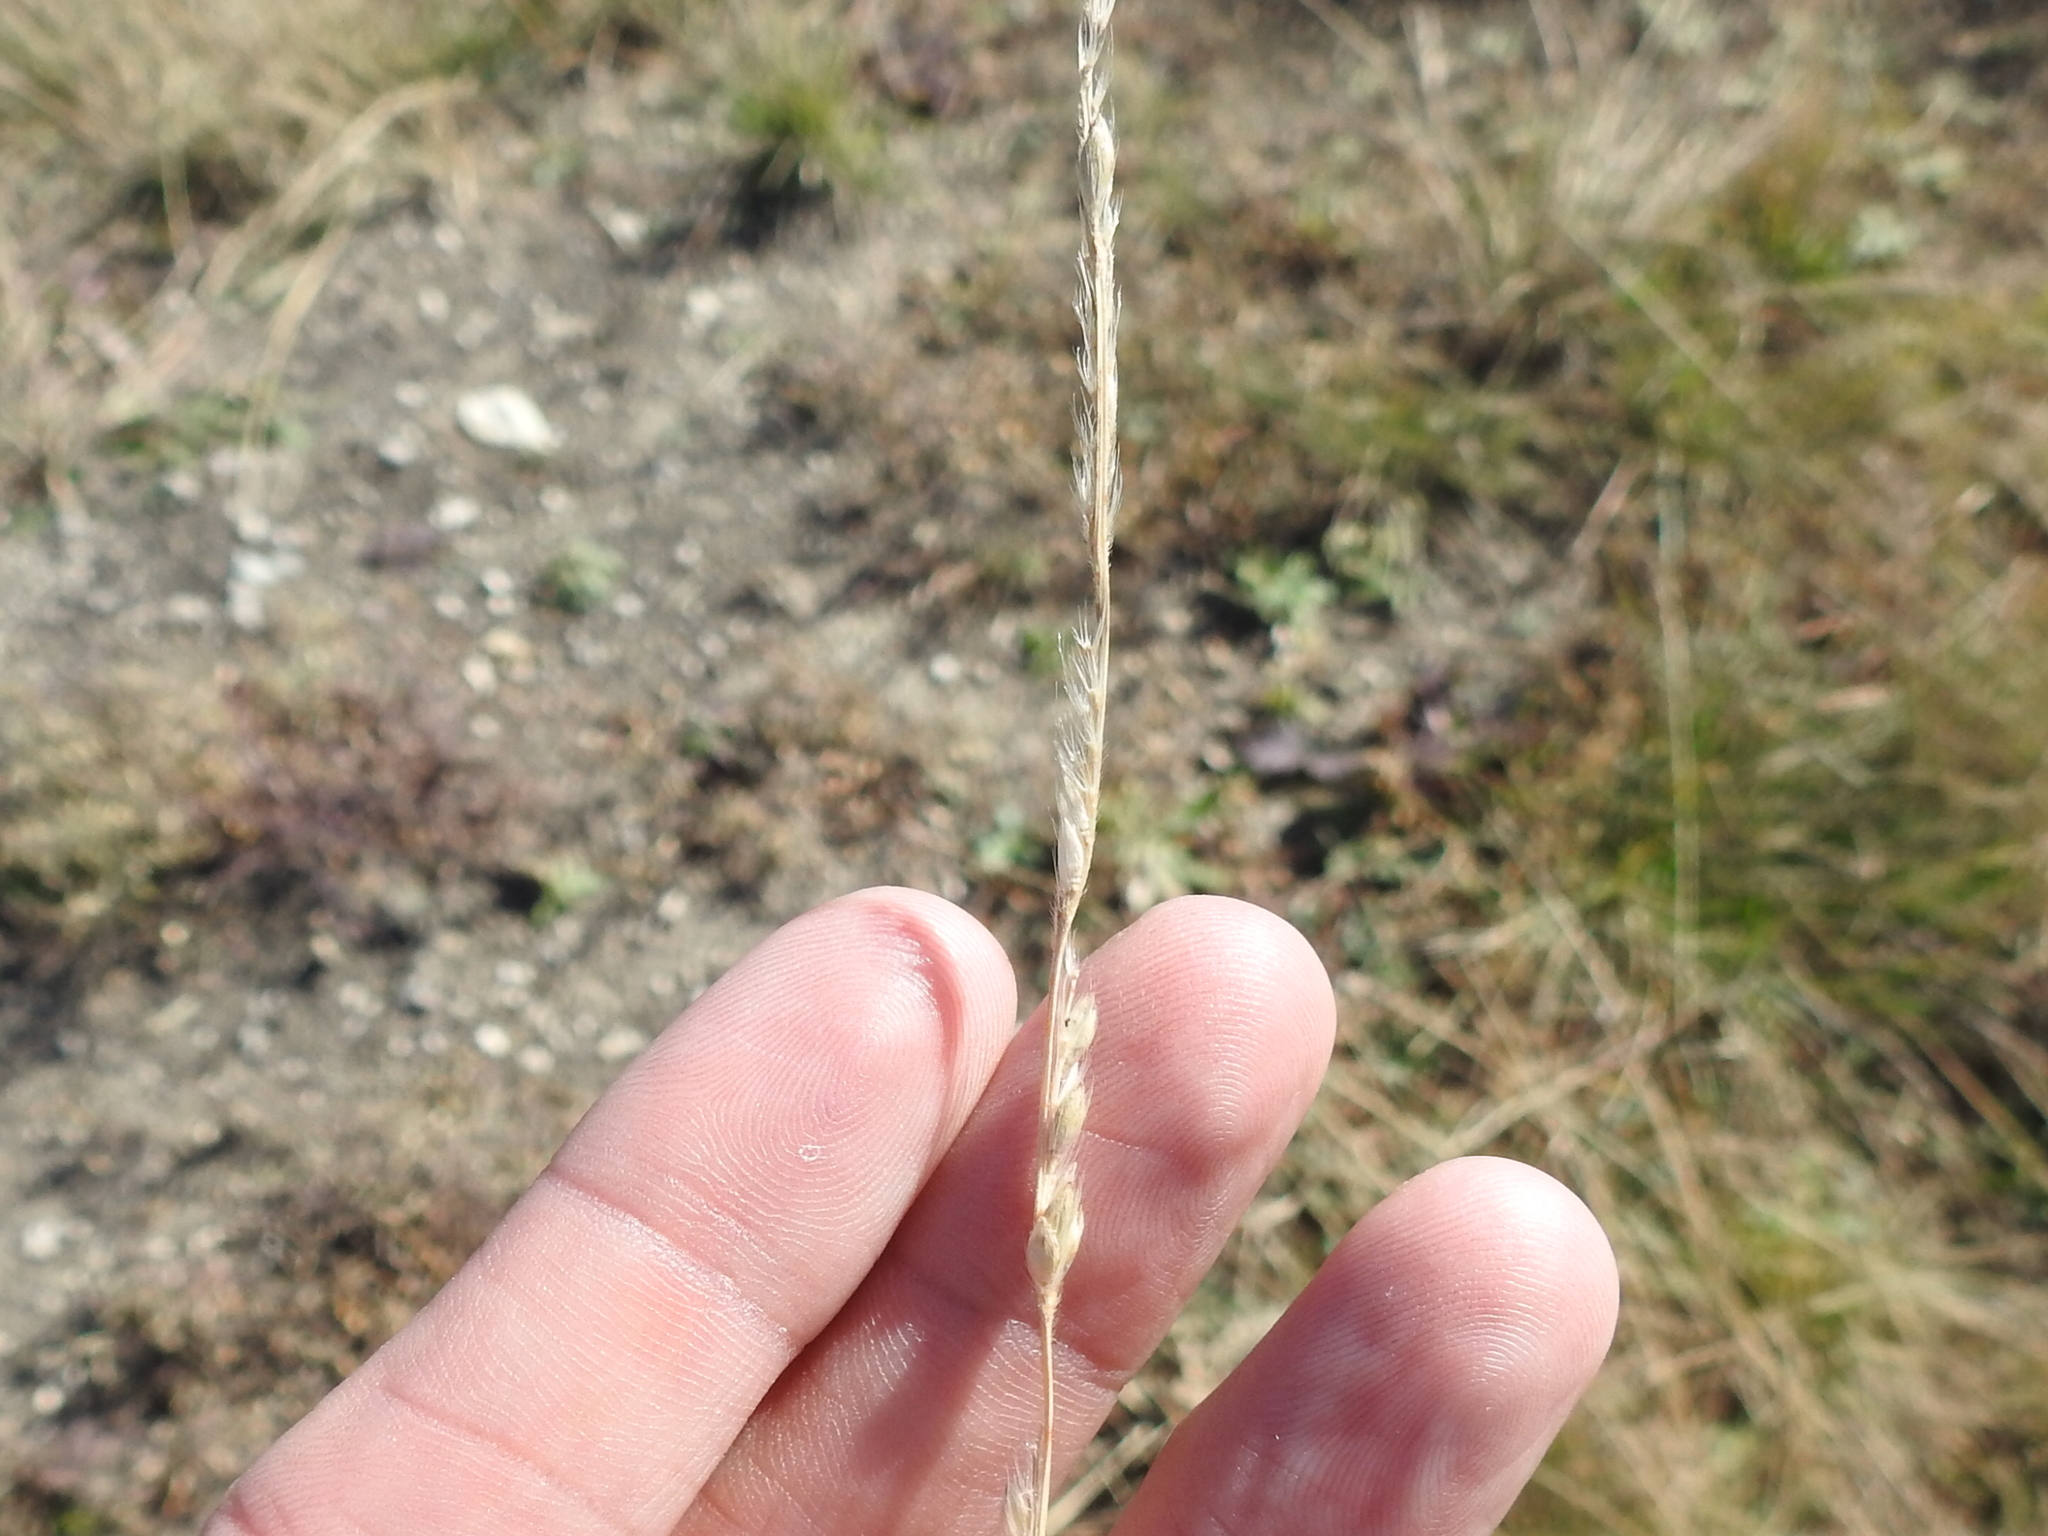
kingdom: Plantae
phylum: Tracheophyta
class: Liliopsida
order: Poales
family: Poaceae
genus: Eriochloa
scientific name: Eriochloa sericea
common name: Texas cup grass
